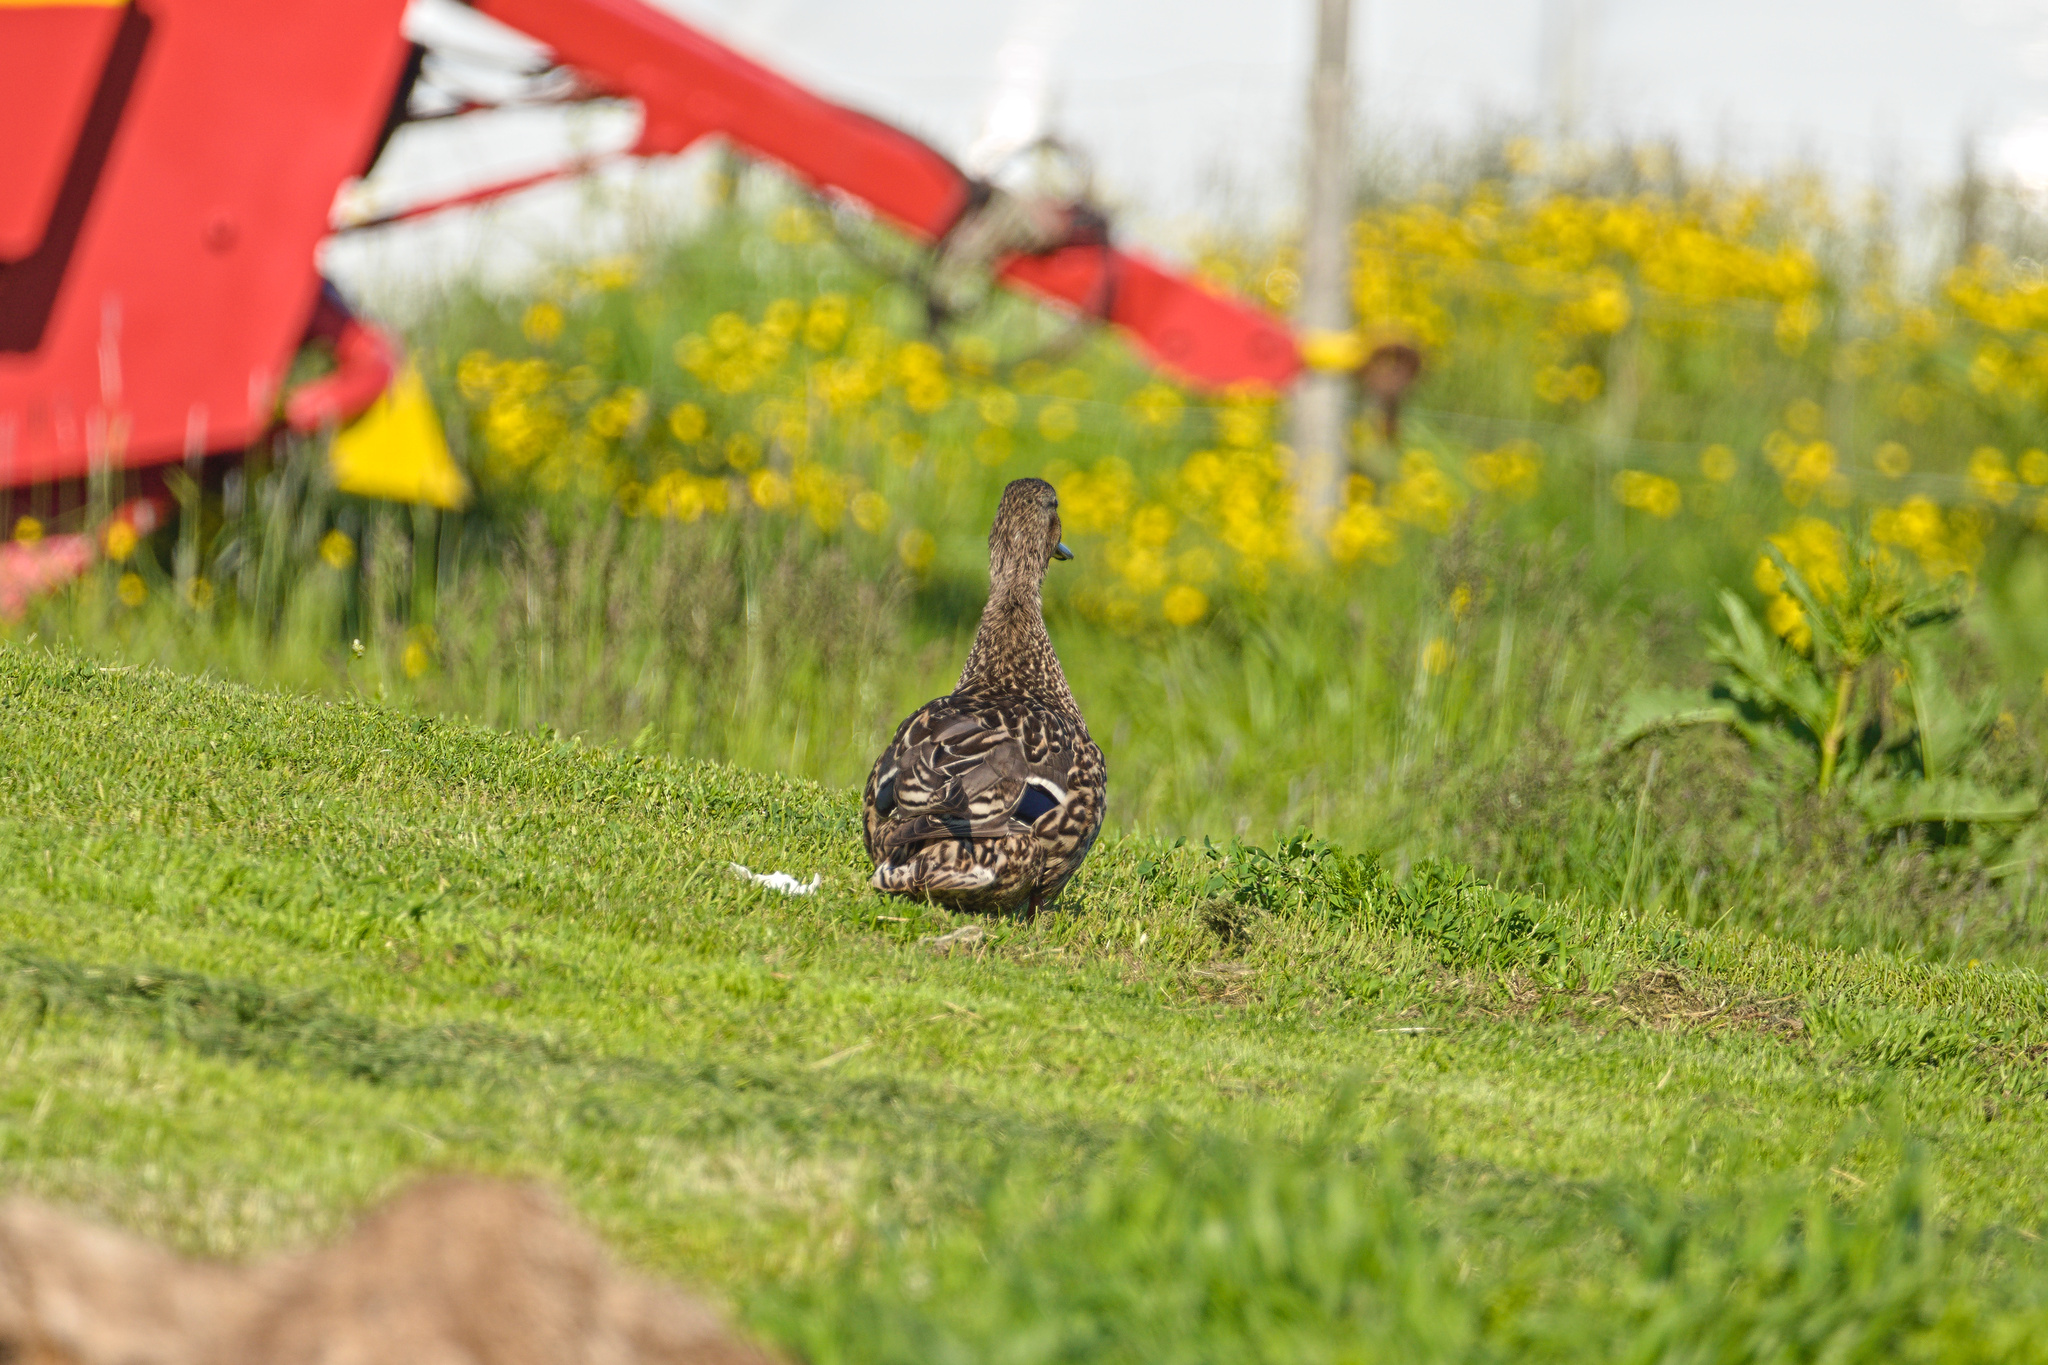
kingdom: Animalia
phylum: Chordata
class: Aves
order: Anseriformes
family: Anatidae
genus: Anas
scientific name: Anas platyrhynchos
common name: Mallard
